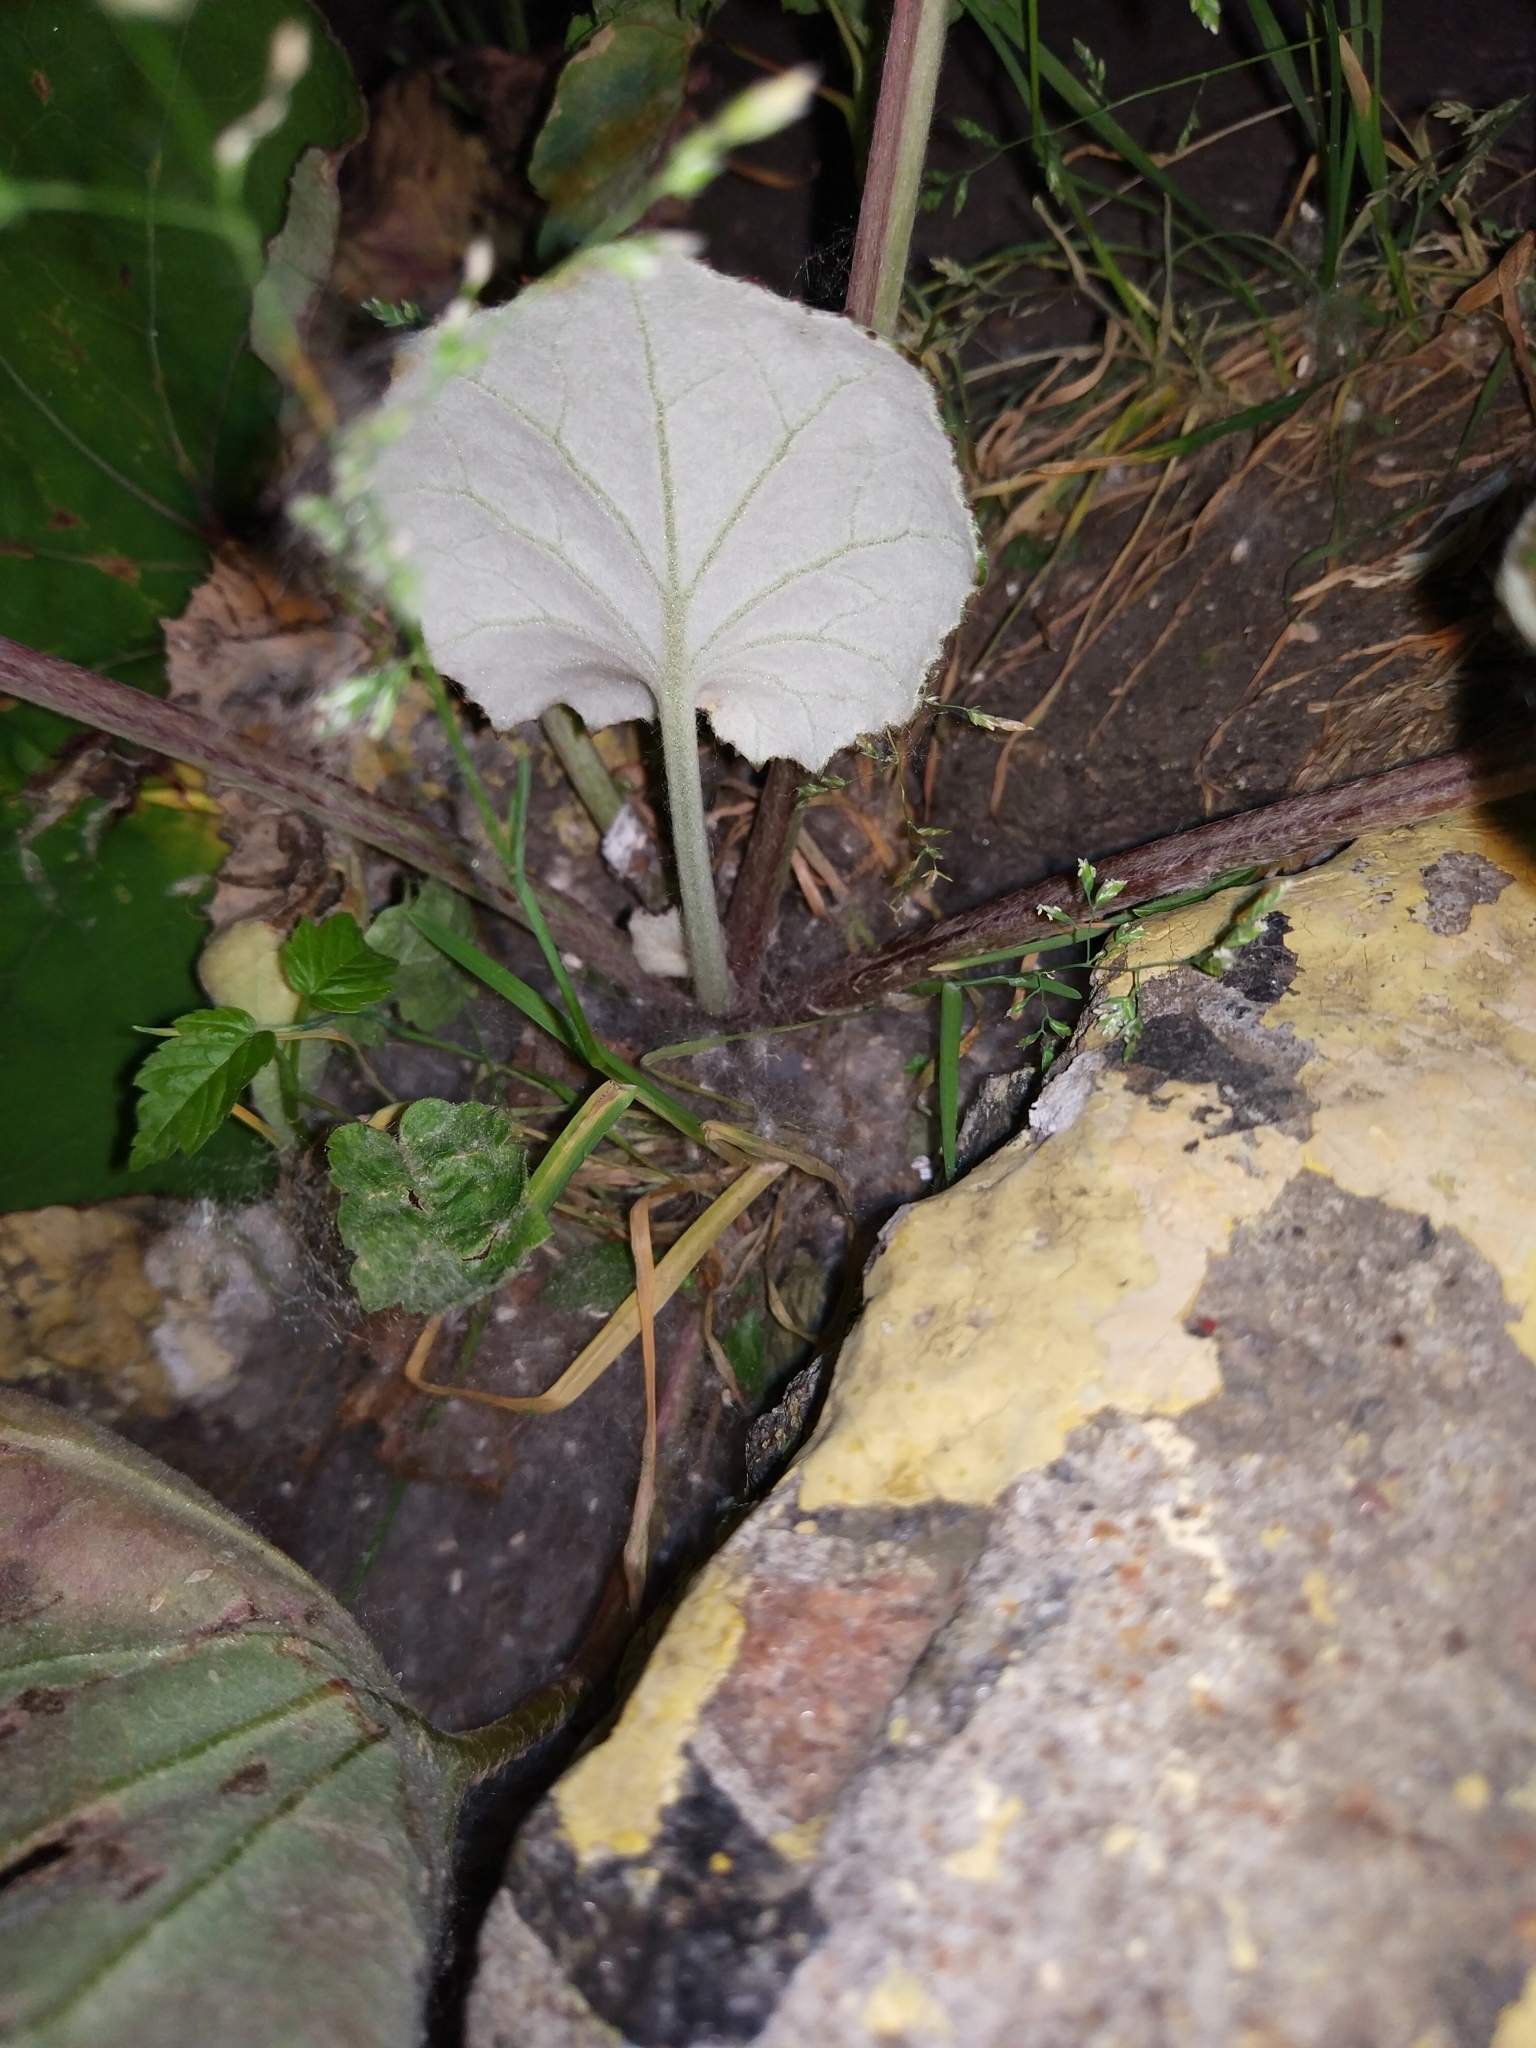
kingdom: Plantae
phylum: Tracheophyta
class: Magnoliopsida
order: Asterales
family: Asteraceae
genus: Tussilago
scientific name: Tussilago farfara
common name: Coltsfoot
